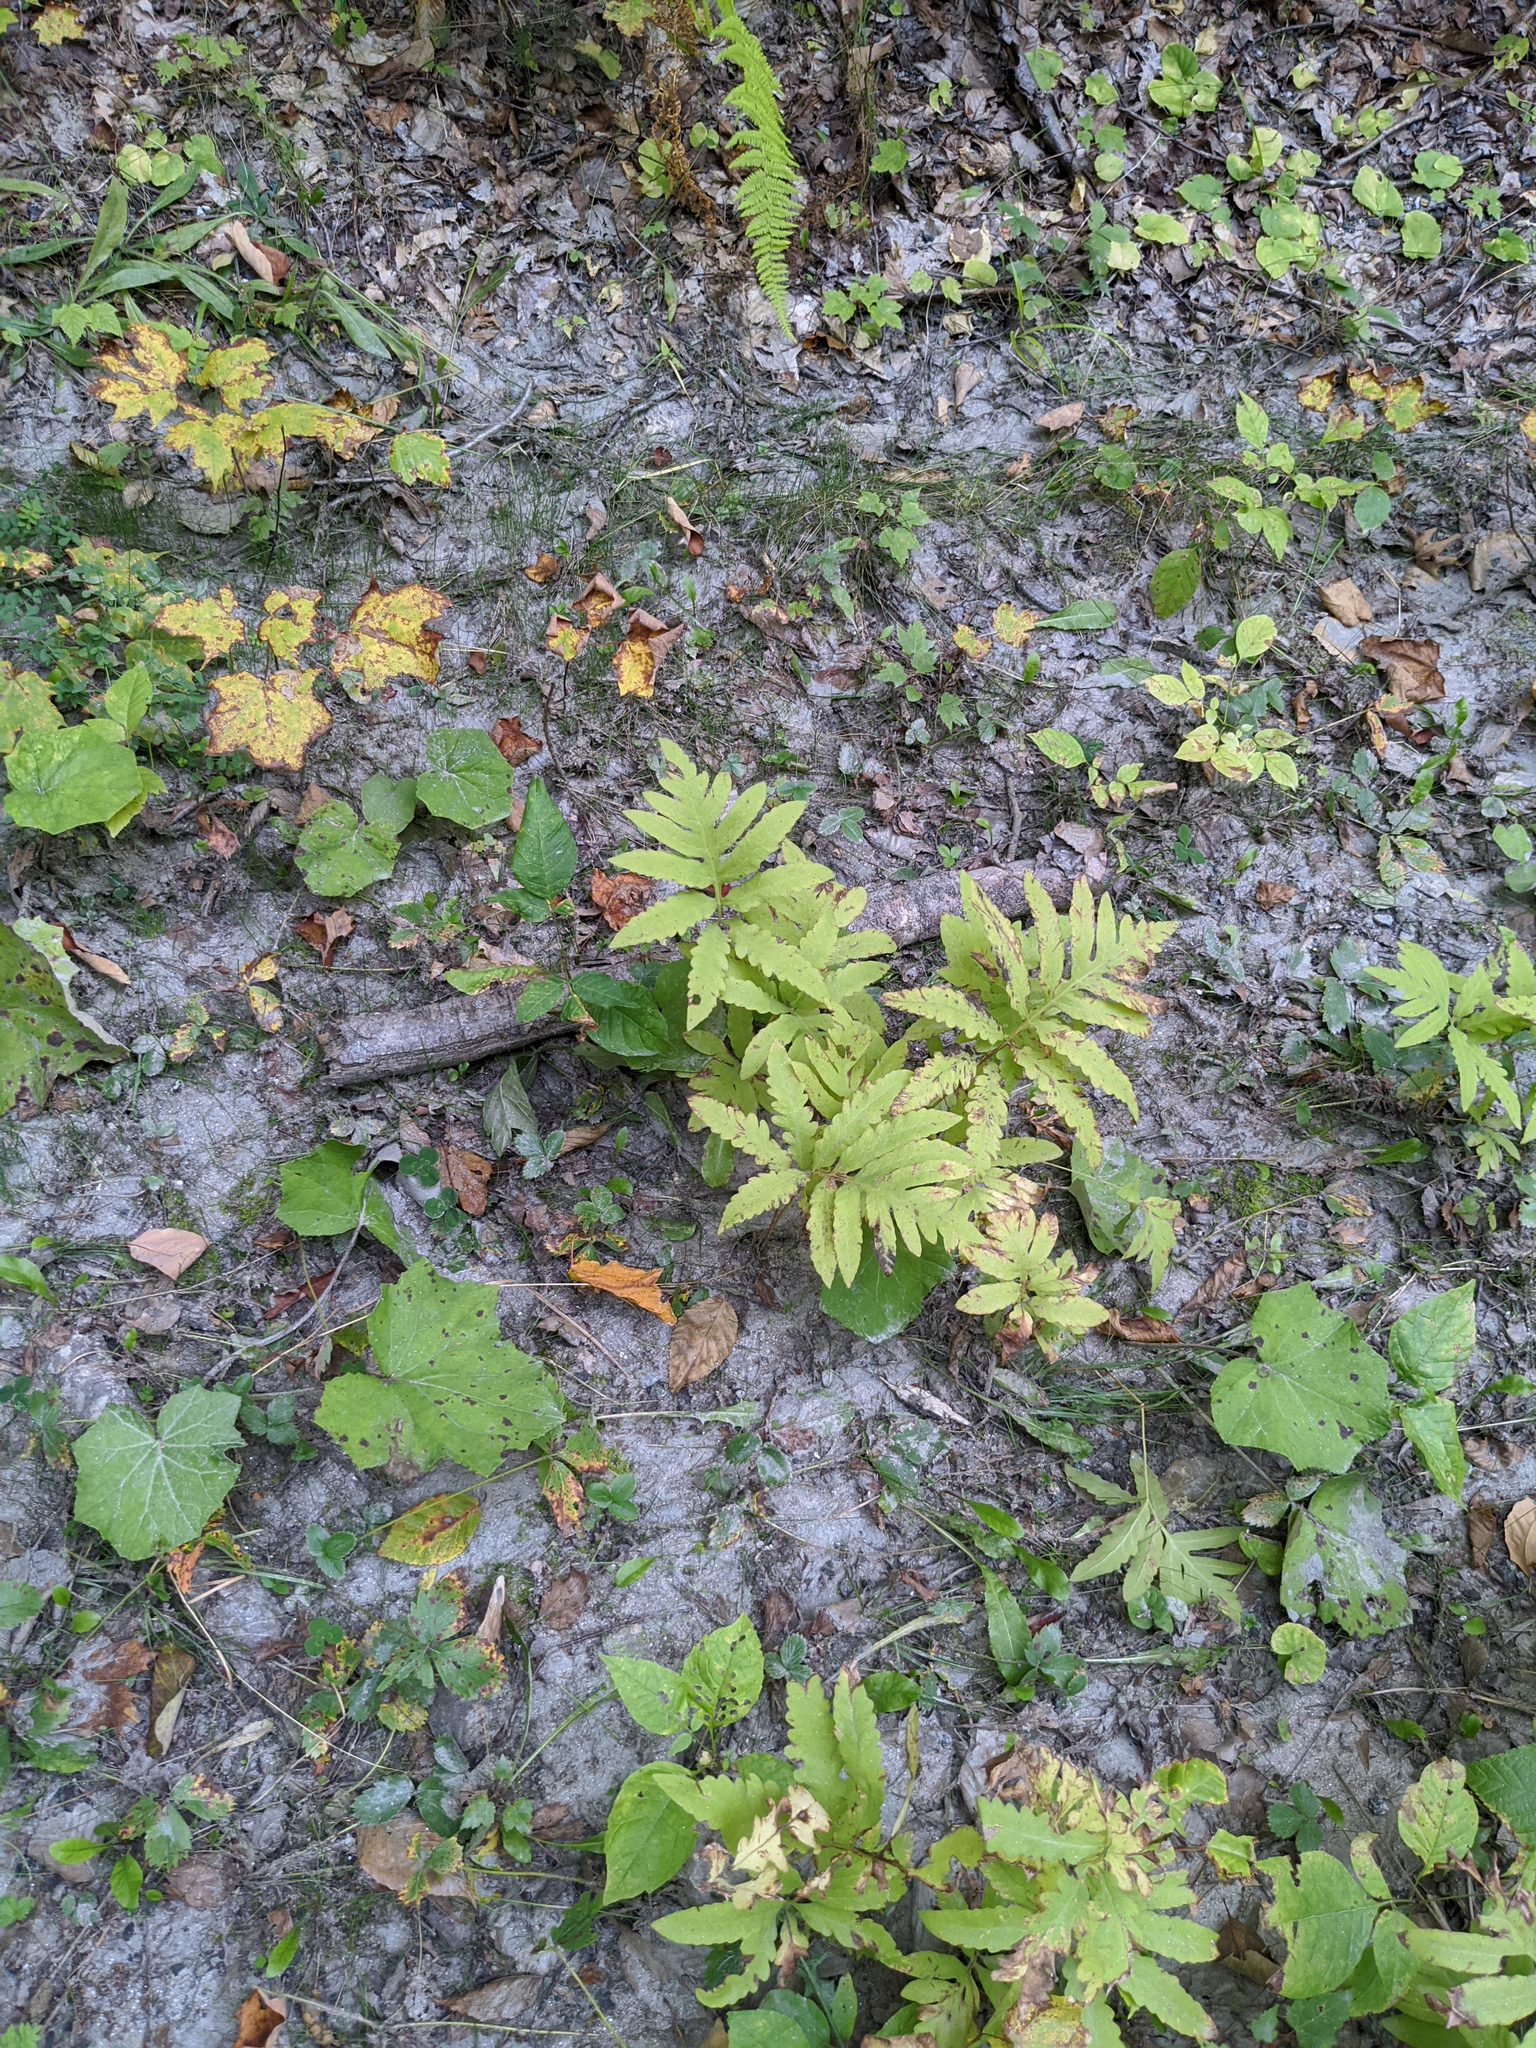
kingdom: Plantae
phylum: Tracheophyta
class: Polypodiopsida
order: Polypodiales
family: Onocleaceae
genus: Onoclea
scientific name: Onoclea sensibilis
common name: Sensitive fern
